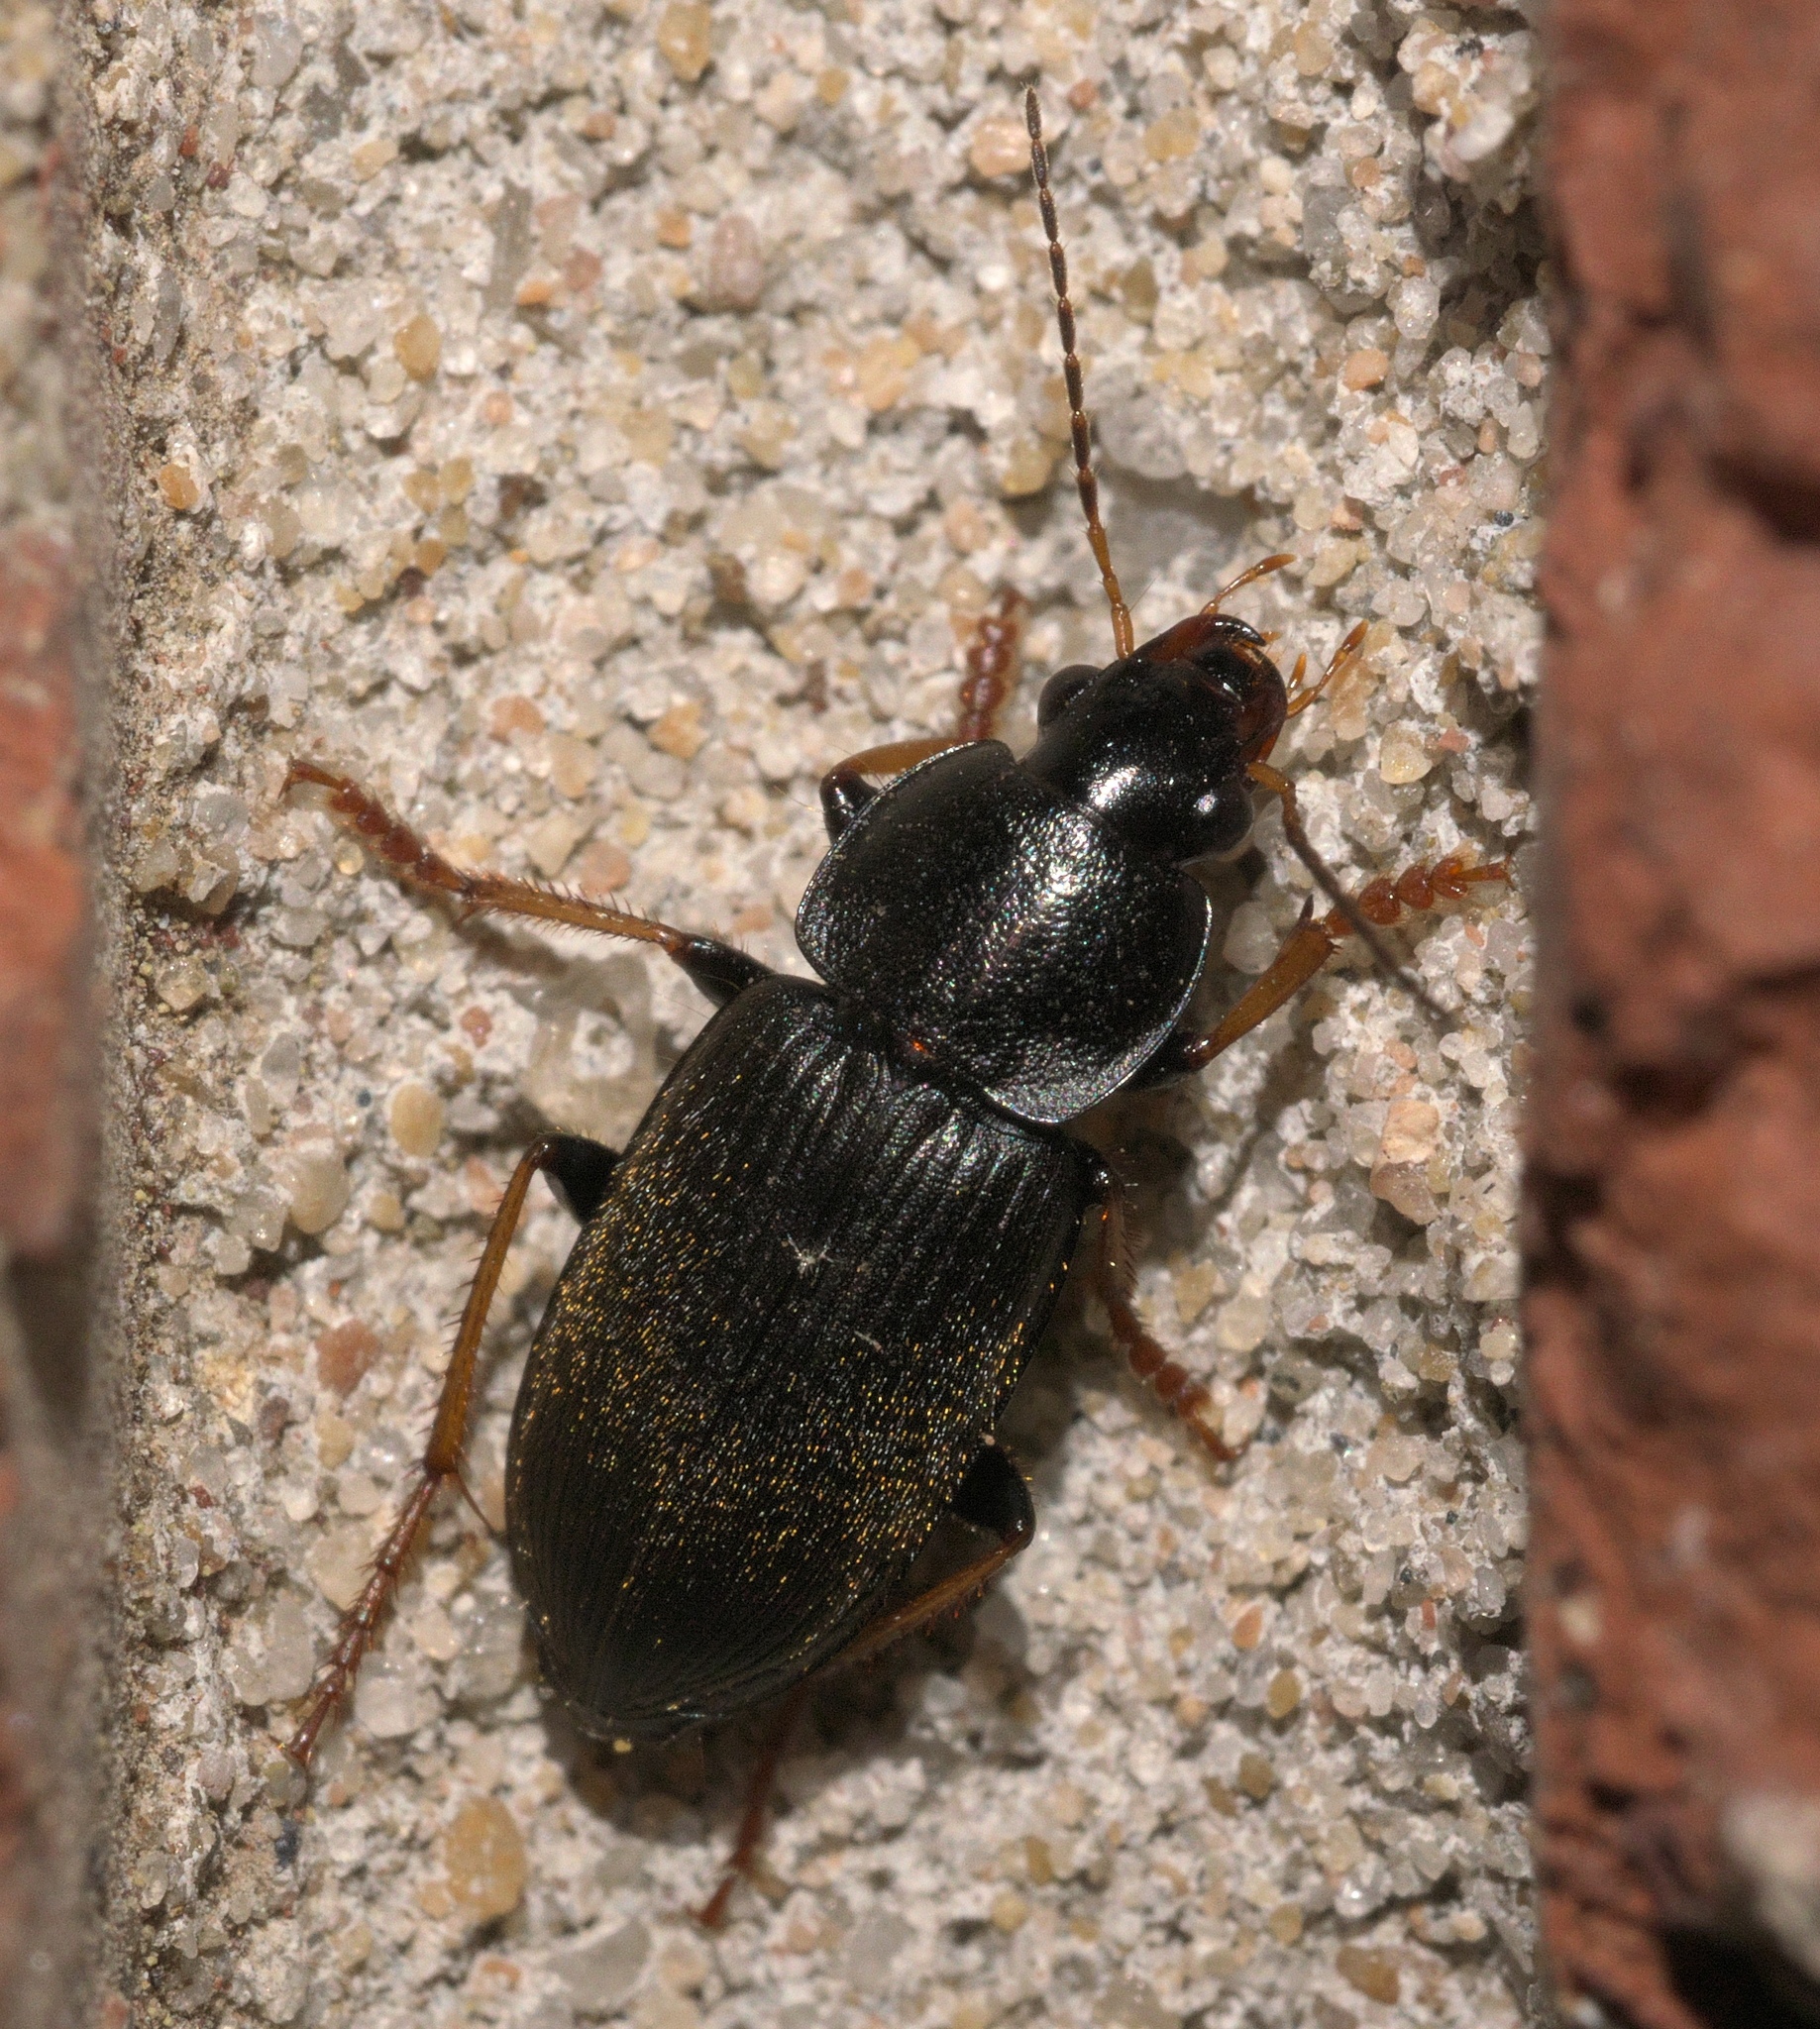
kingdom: Animalia
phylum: Arthropoda
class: Insecta
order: Coleoptera
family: Carabidae
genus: Amphasia
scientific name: Amphasia sericea
